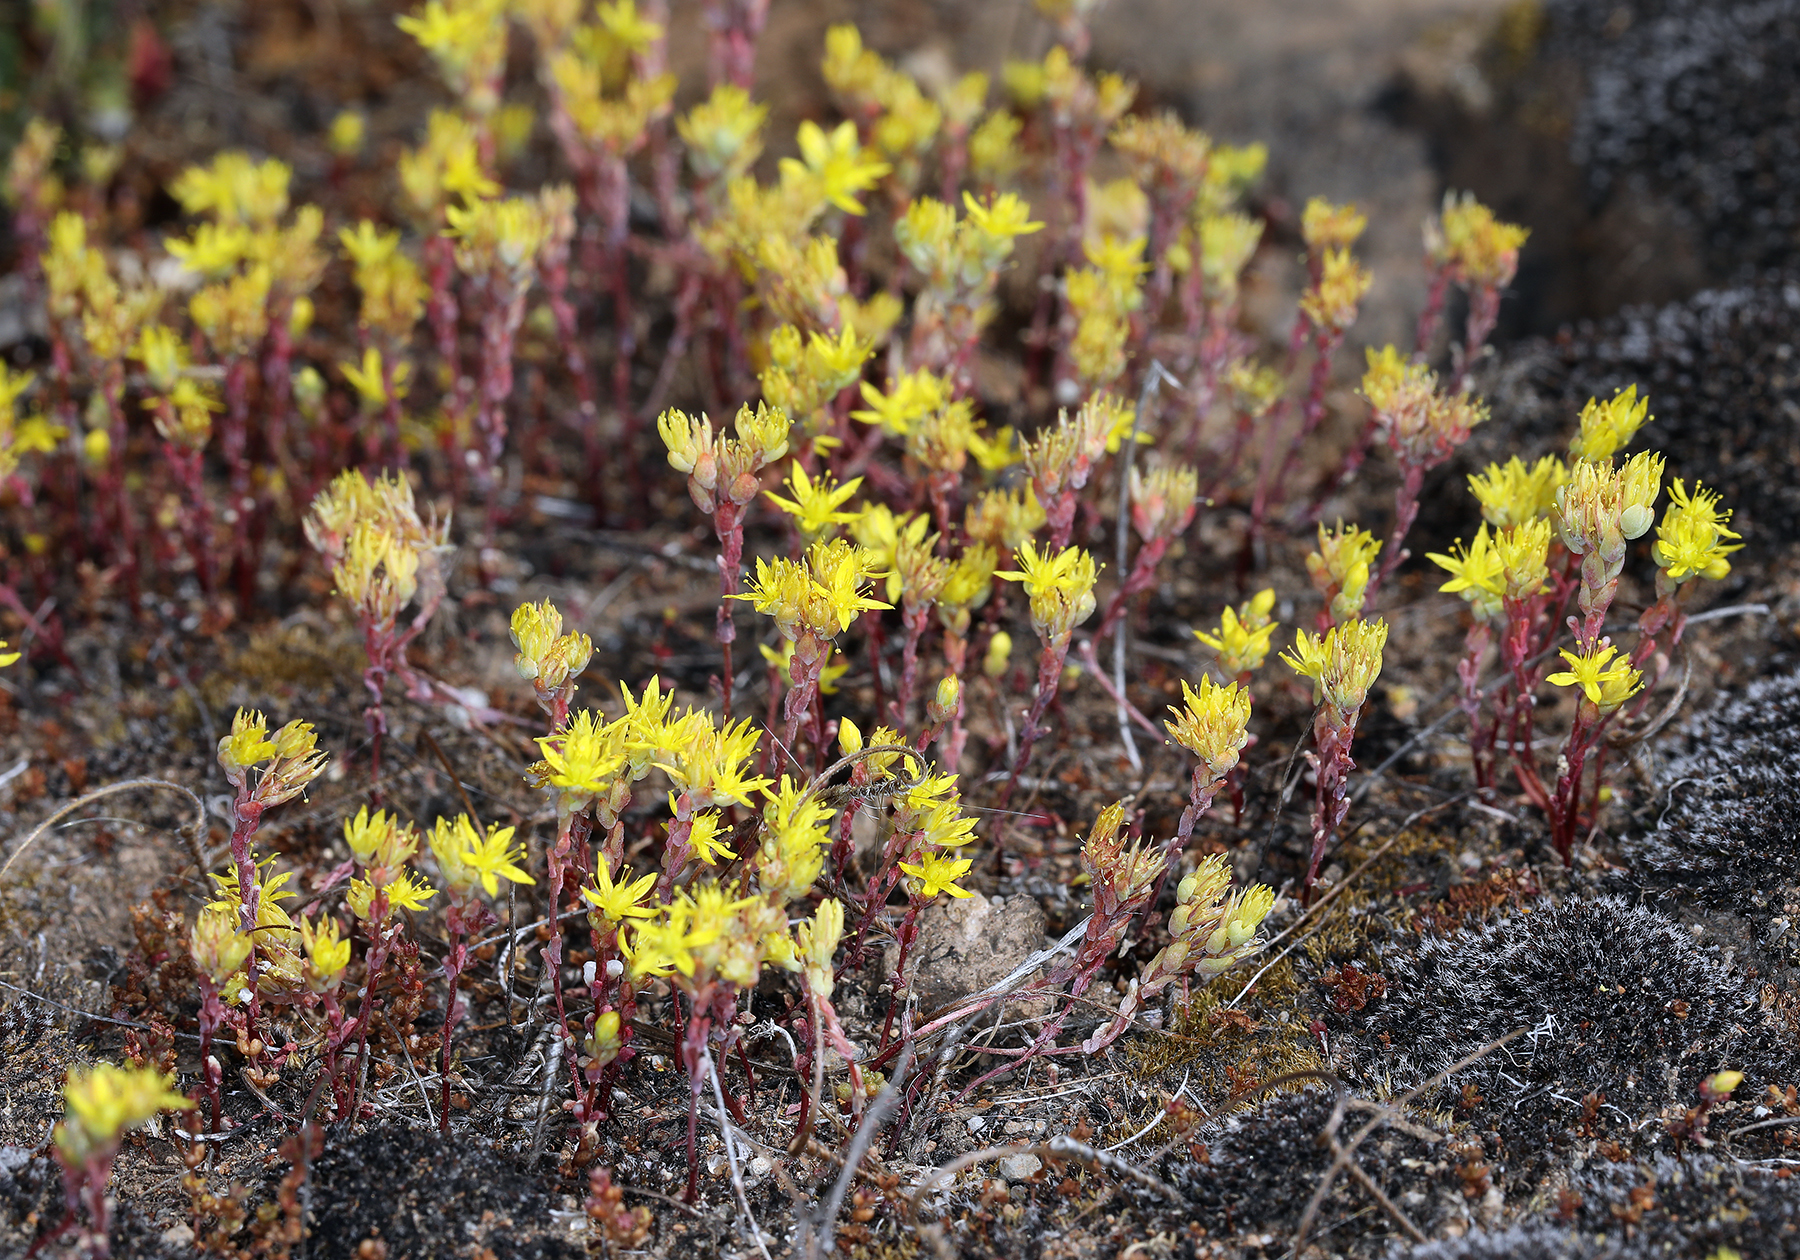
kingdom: Plantae
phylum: Tracheophyta
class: Magnoliopsida
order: Saxifragales
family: Crassulaceae
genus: Sedella
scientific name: Sedella pumila
